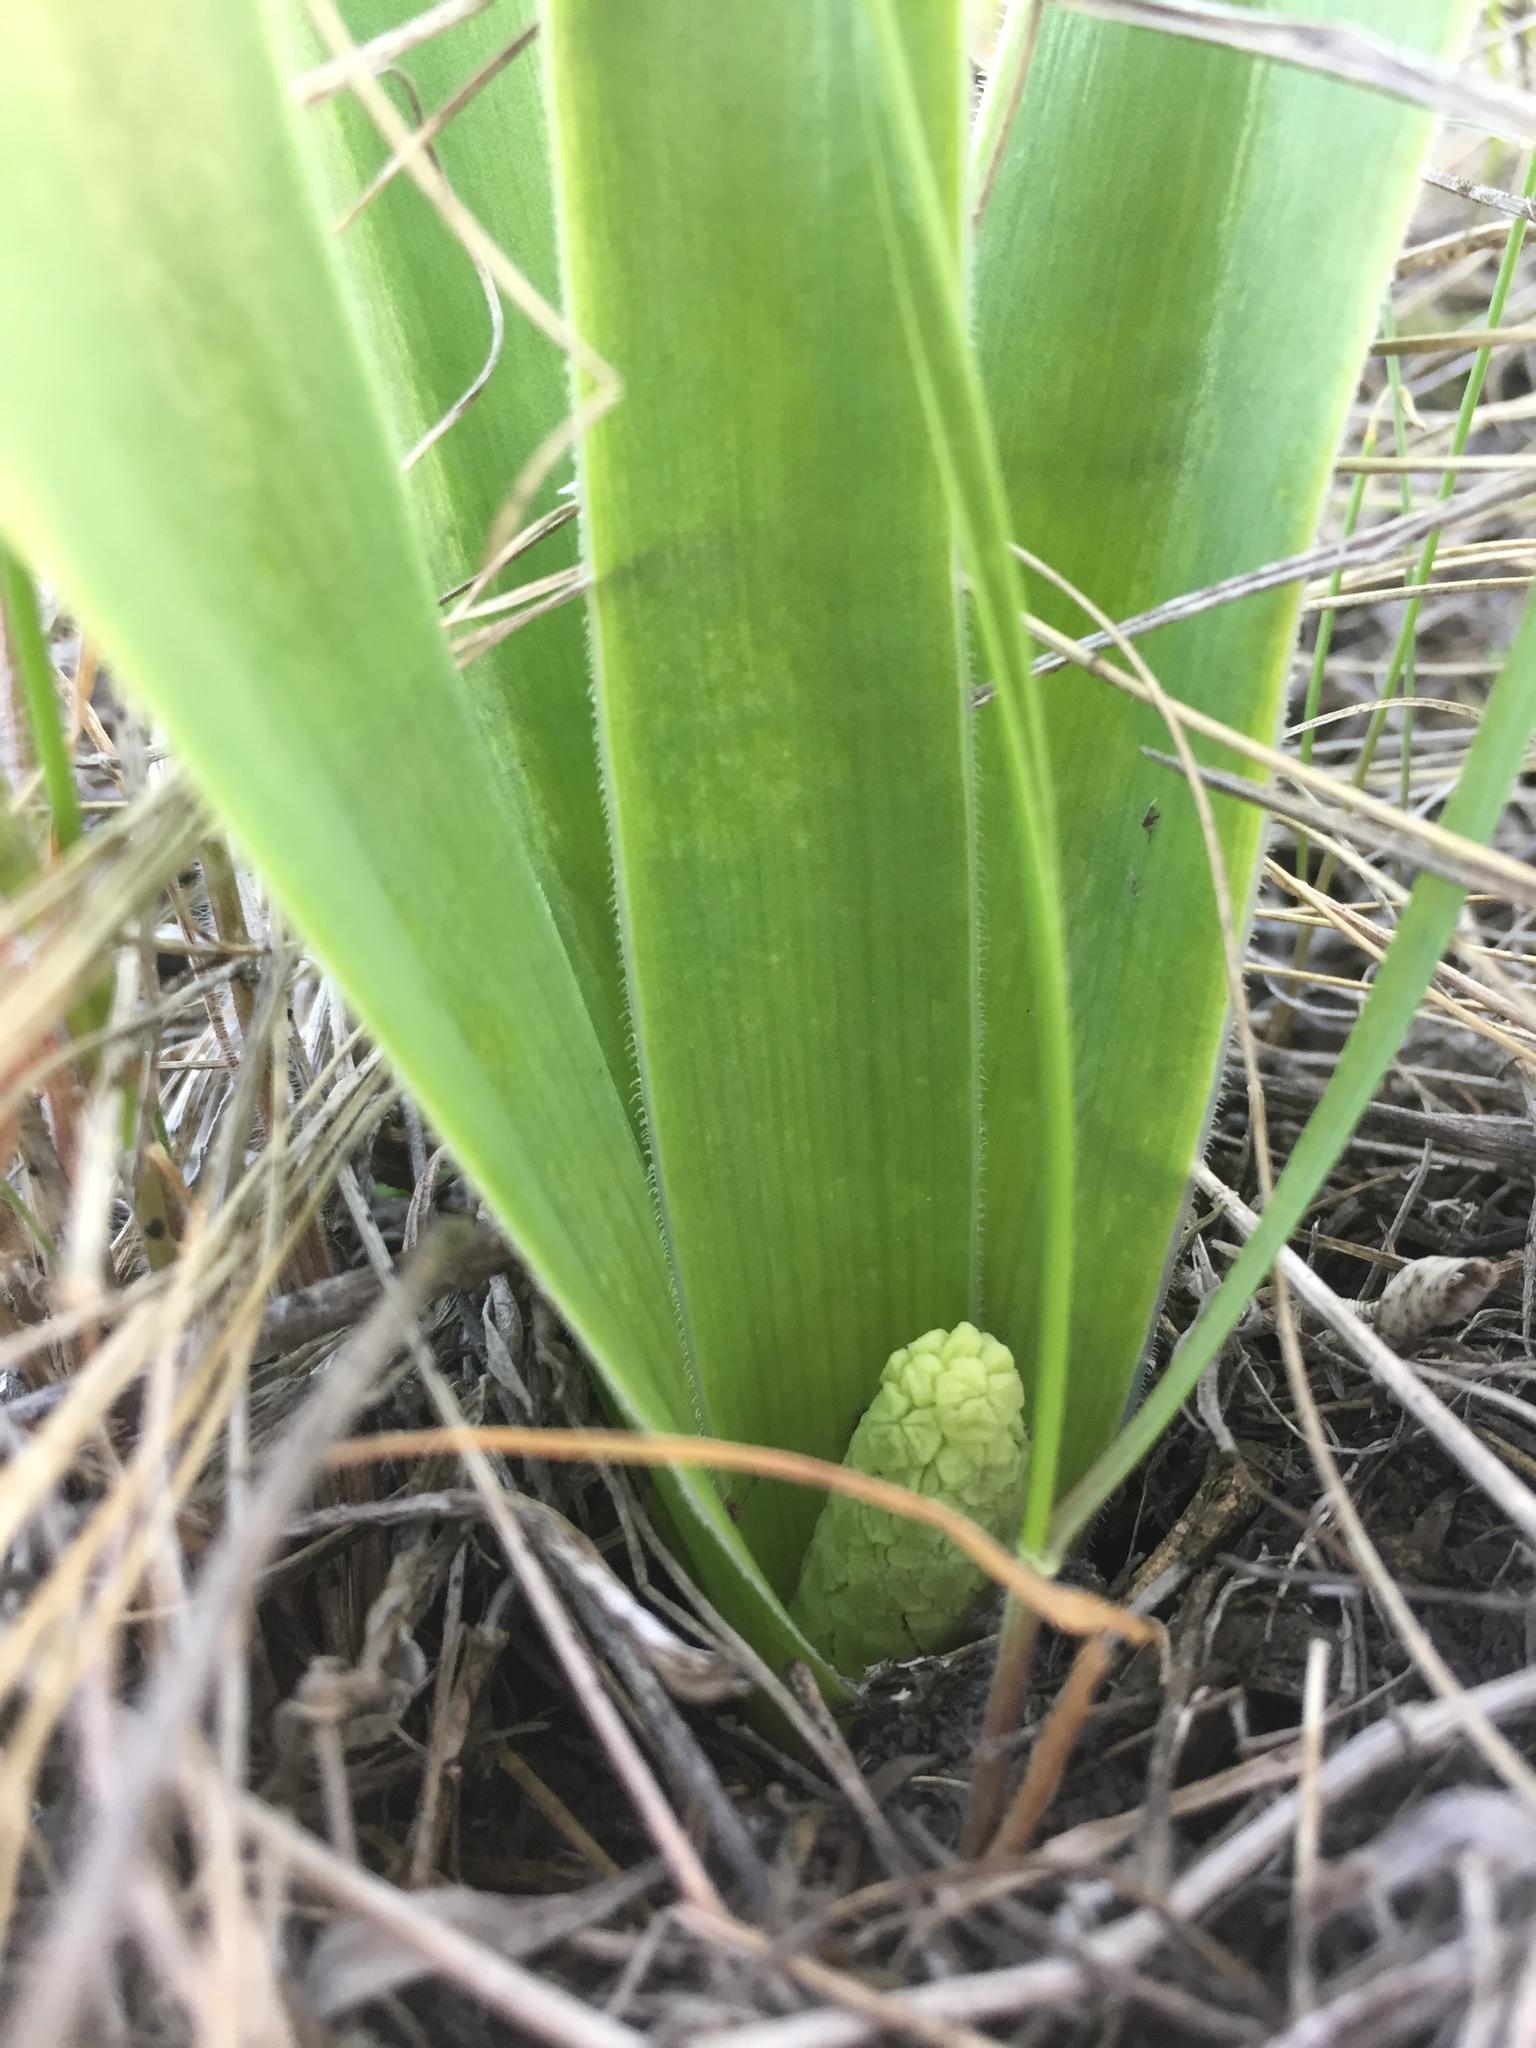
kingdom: Plantae
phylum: Tracheophyta
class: Liliopsida
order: Asparagales
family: Asparagaceae
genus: Bellevalia
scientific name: Bellevalia speciosa
